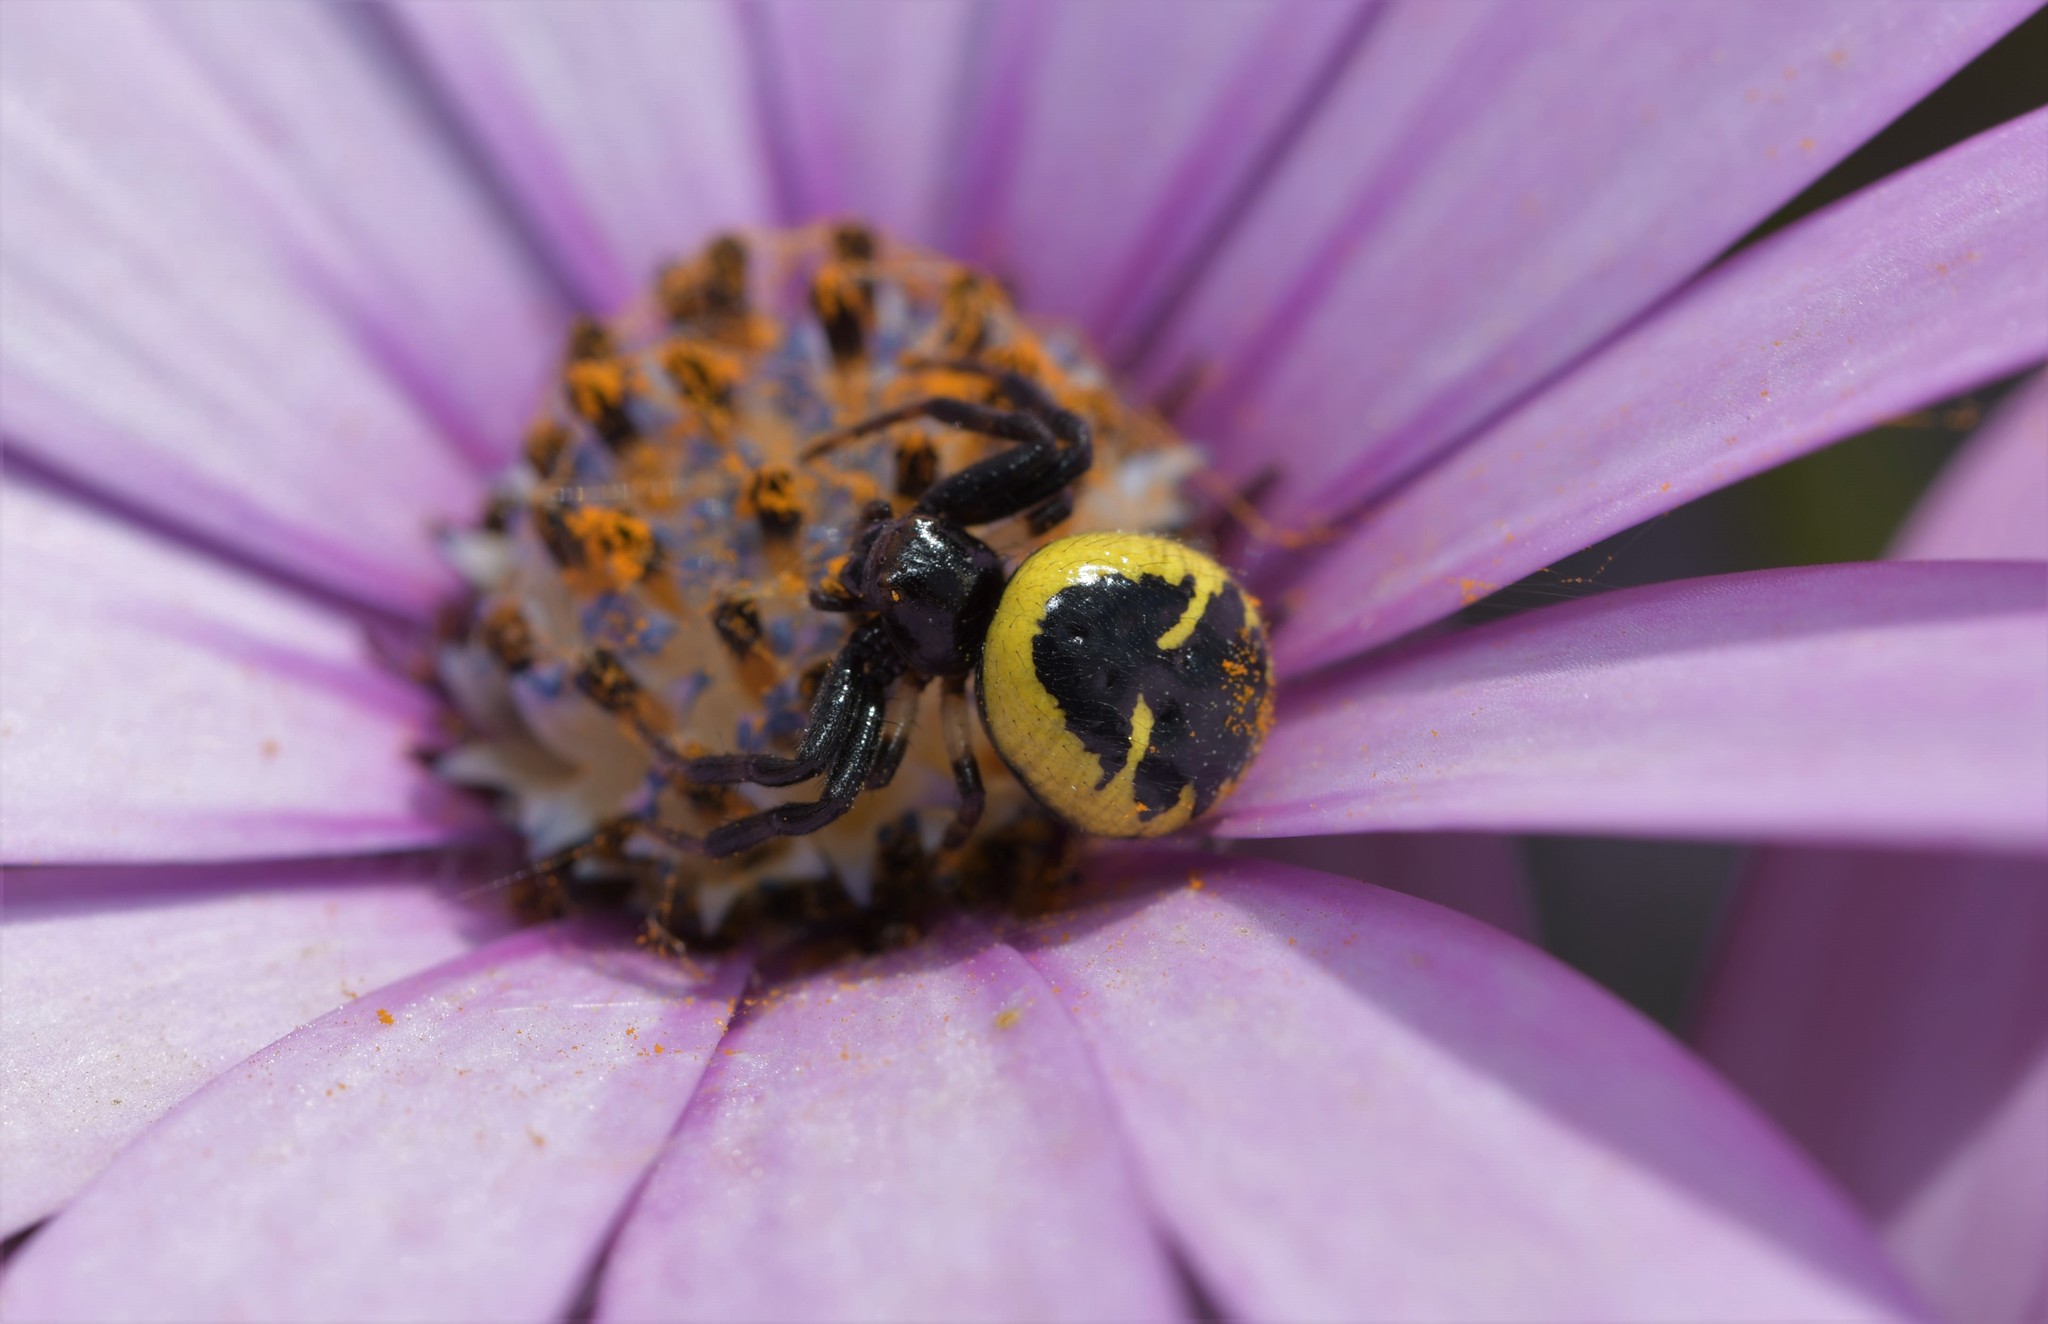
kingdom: Animalia
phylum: Arthropoda
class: Arachnida
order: Araneae
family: Thomisidae
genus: Synema
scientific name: Synema globosum
